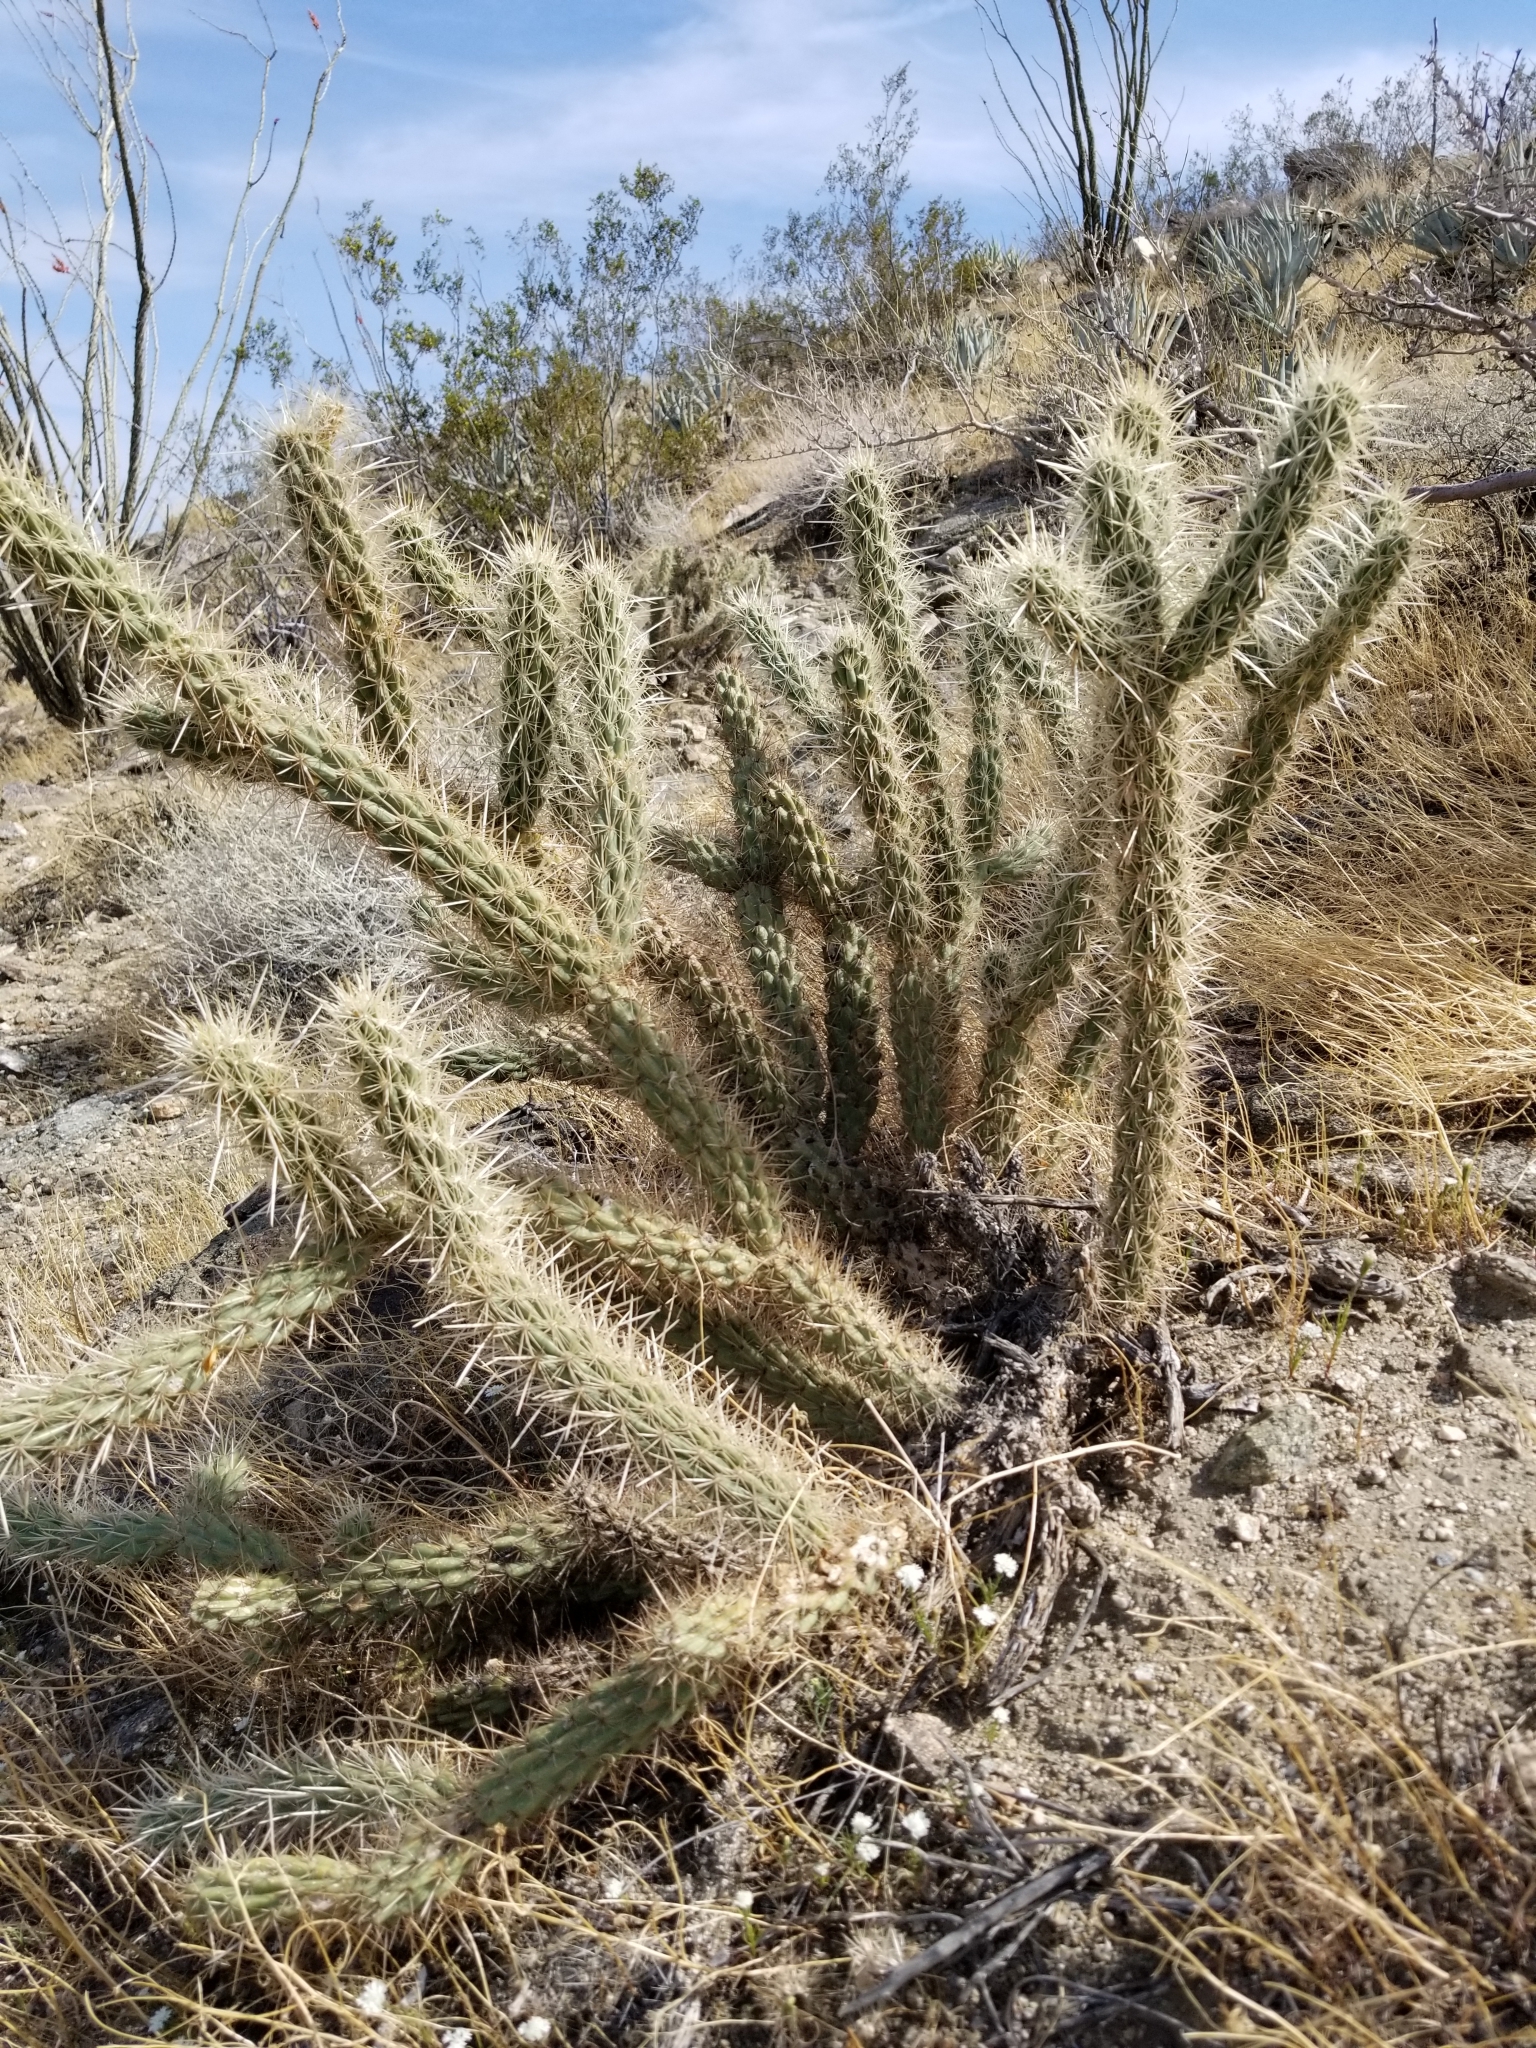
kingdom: Plantae
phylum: Tracheophyta
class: Magnoliopsida
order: Caryophyllales
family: Cactaceae
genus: Cylindropuntia
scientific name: Cylindropuntia ganderi
